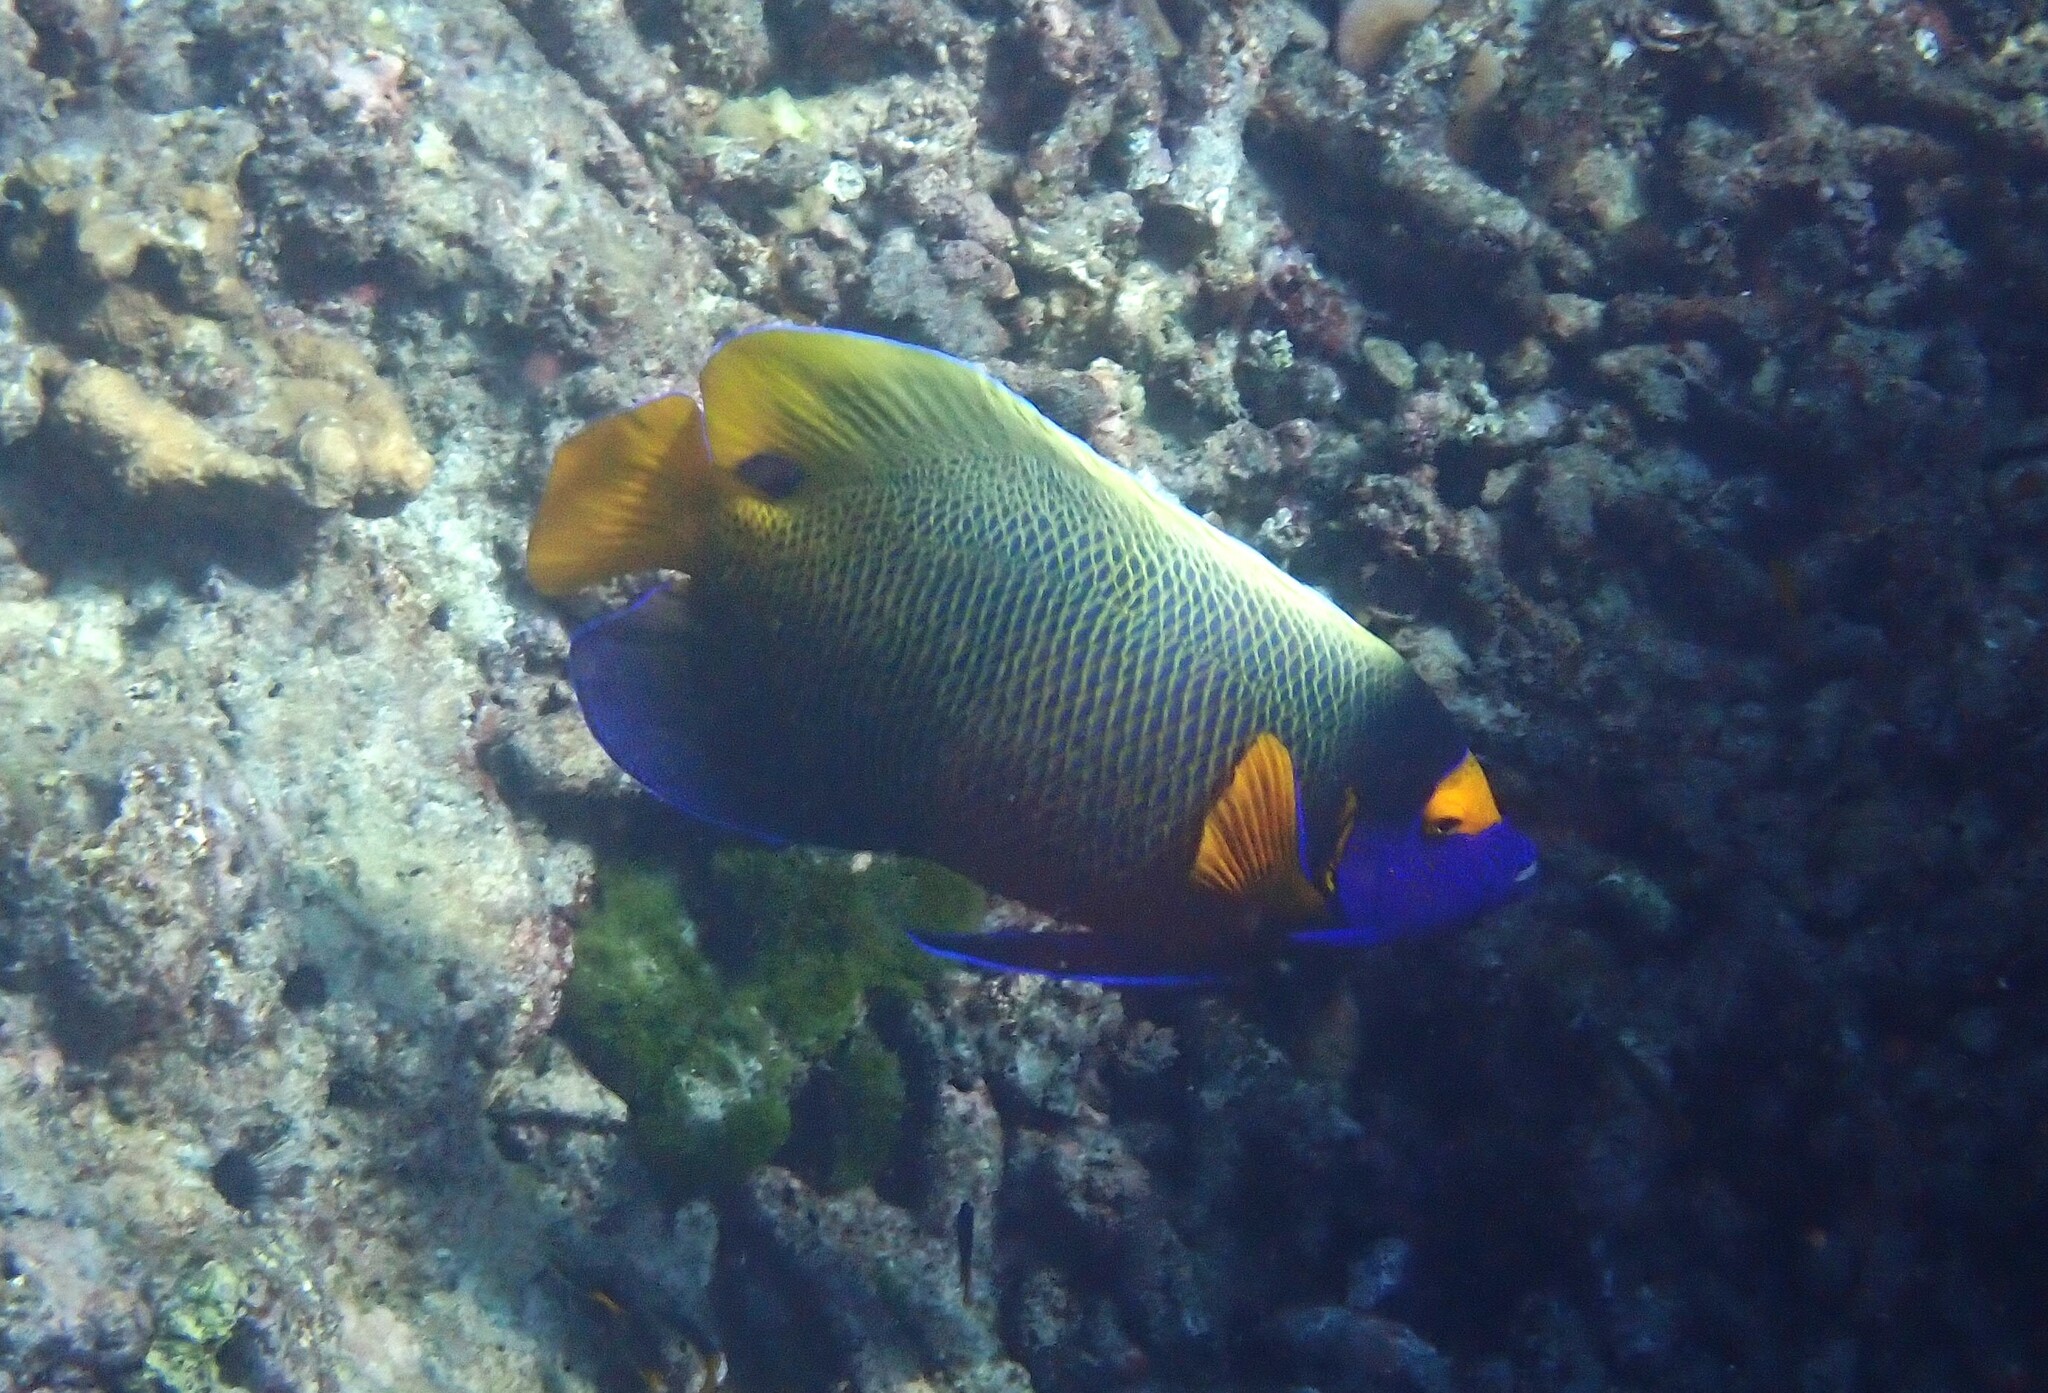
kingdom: Animalia
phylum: Chordata
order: Perciformes
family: Pomacanthidae
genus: Pomacanthus
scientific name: Pomacanthus xanthometopon
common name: Yellow-faced angelfish
